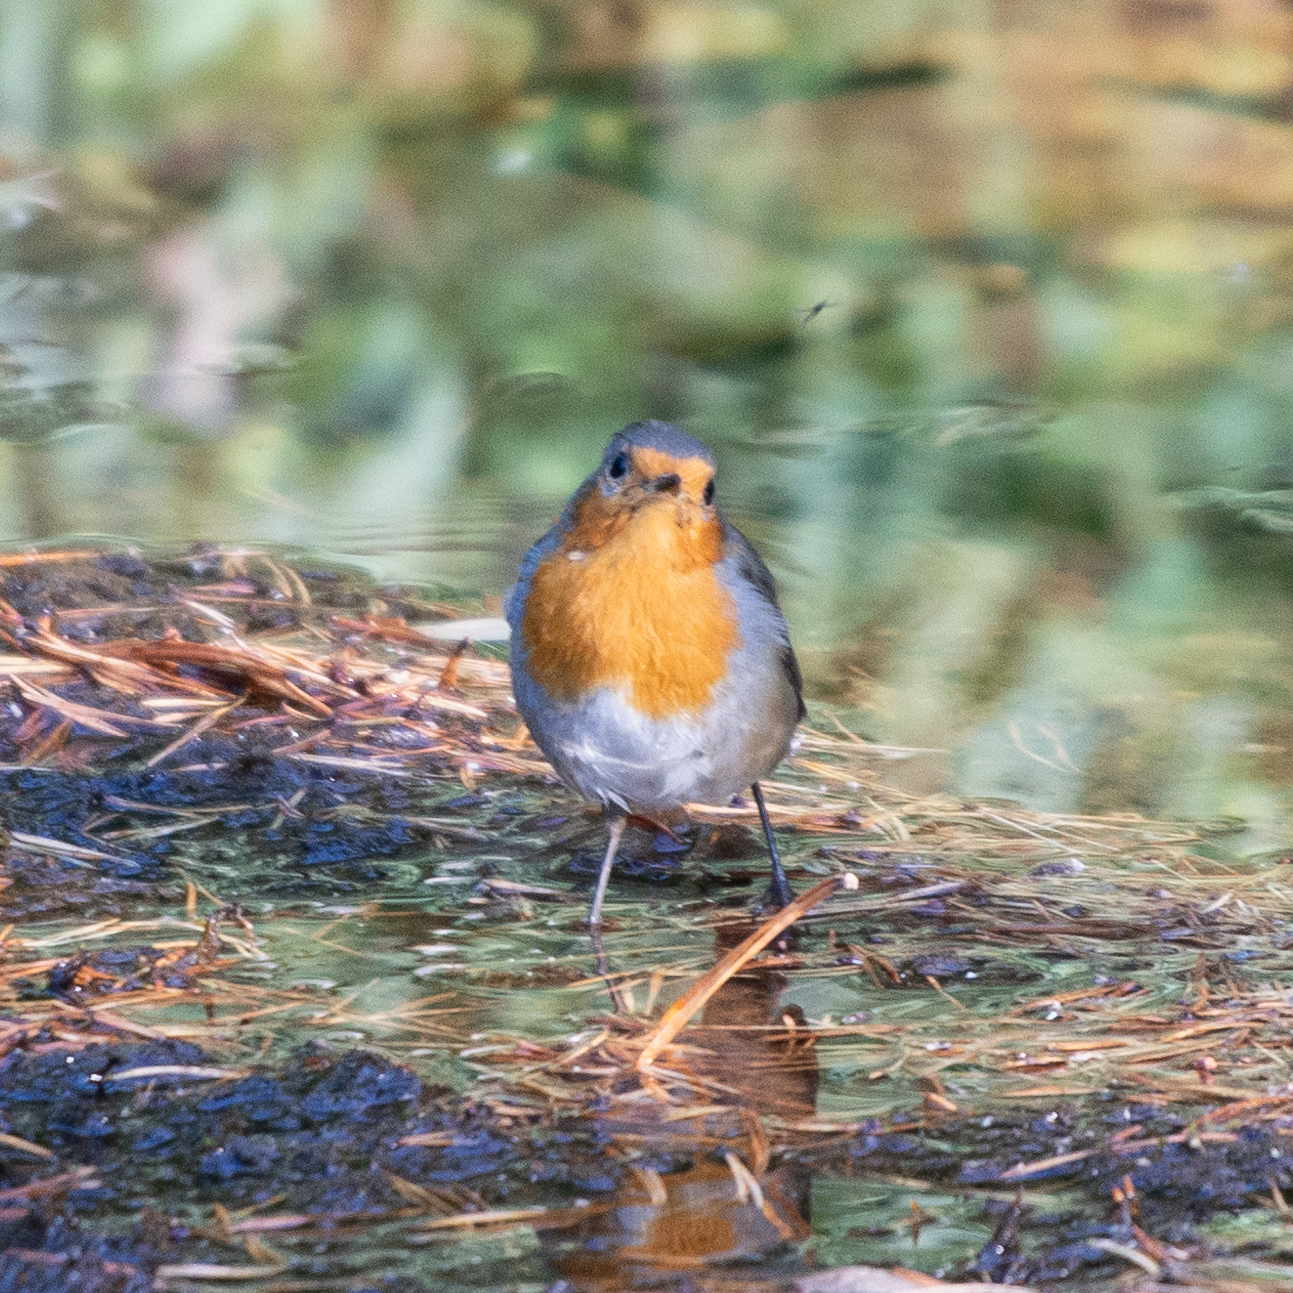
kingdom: Animalia
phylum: Chordata
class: Aves
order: Passeriformes
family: Muscicapidae
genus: Erithacus
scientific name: Erithacus rubecula
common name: European robin
